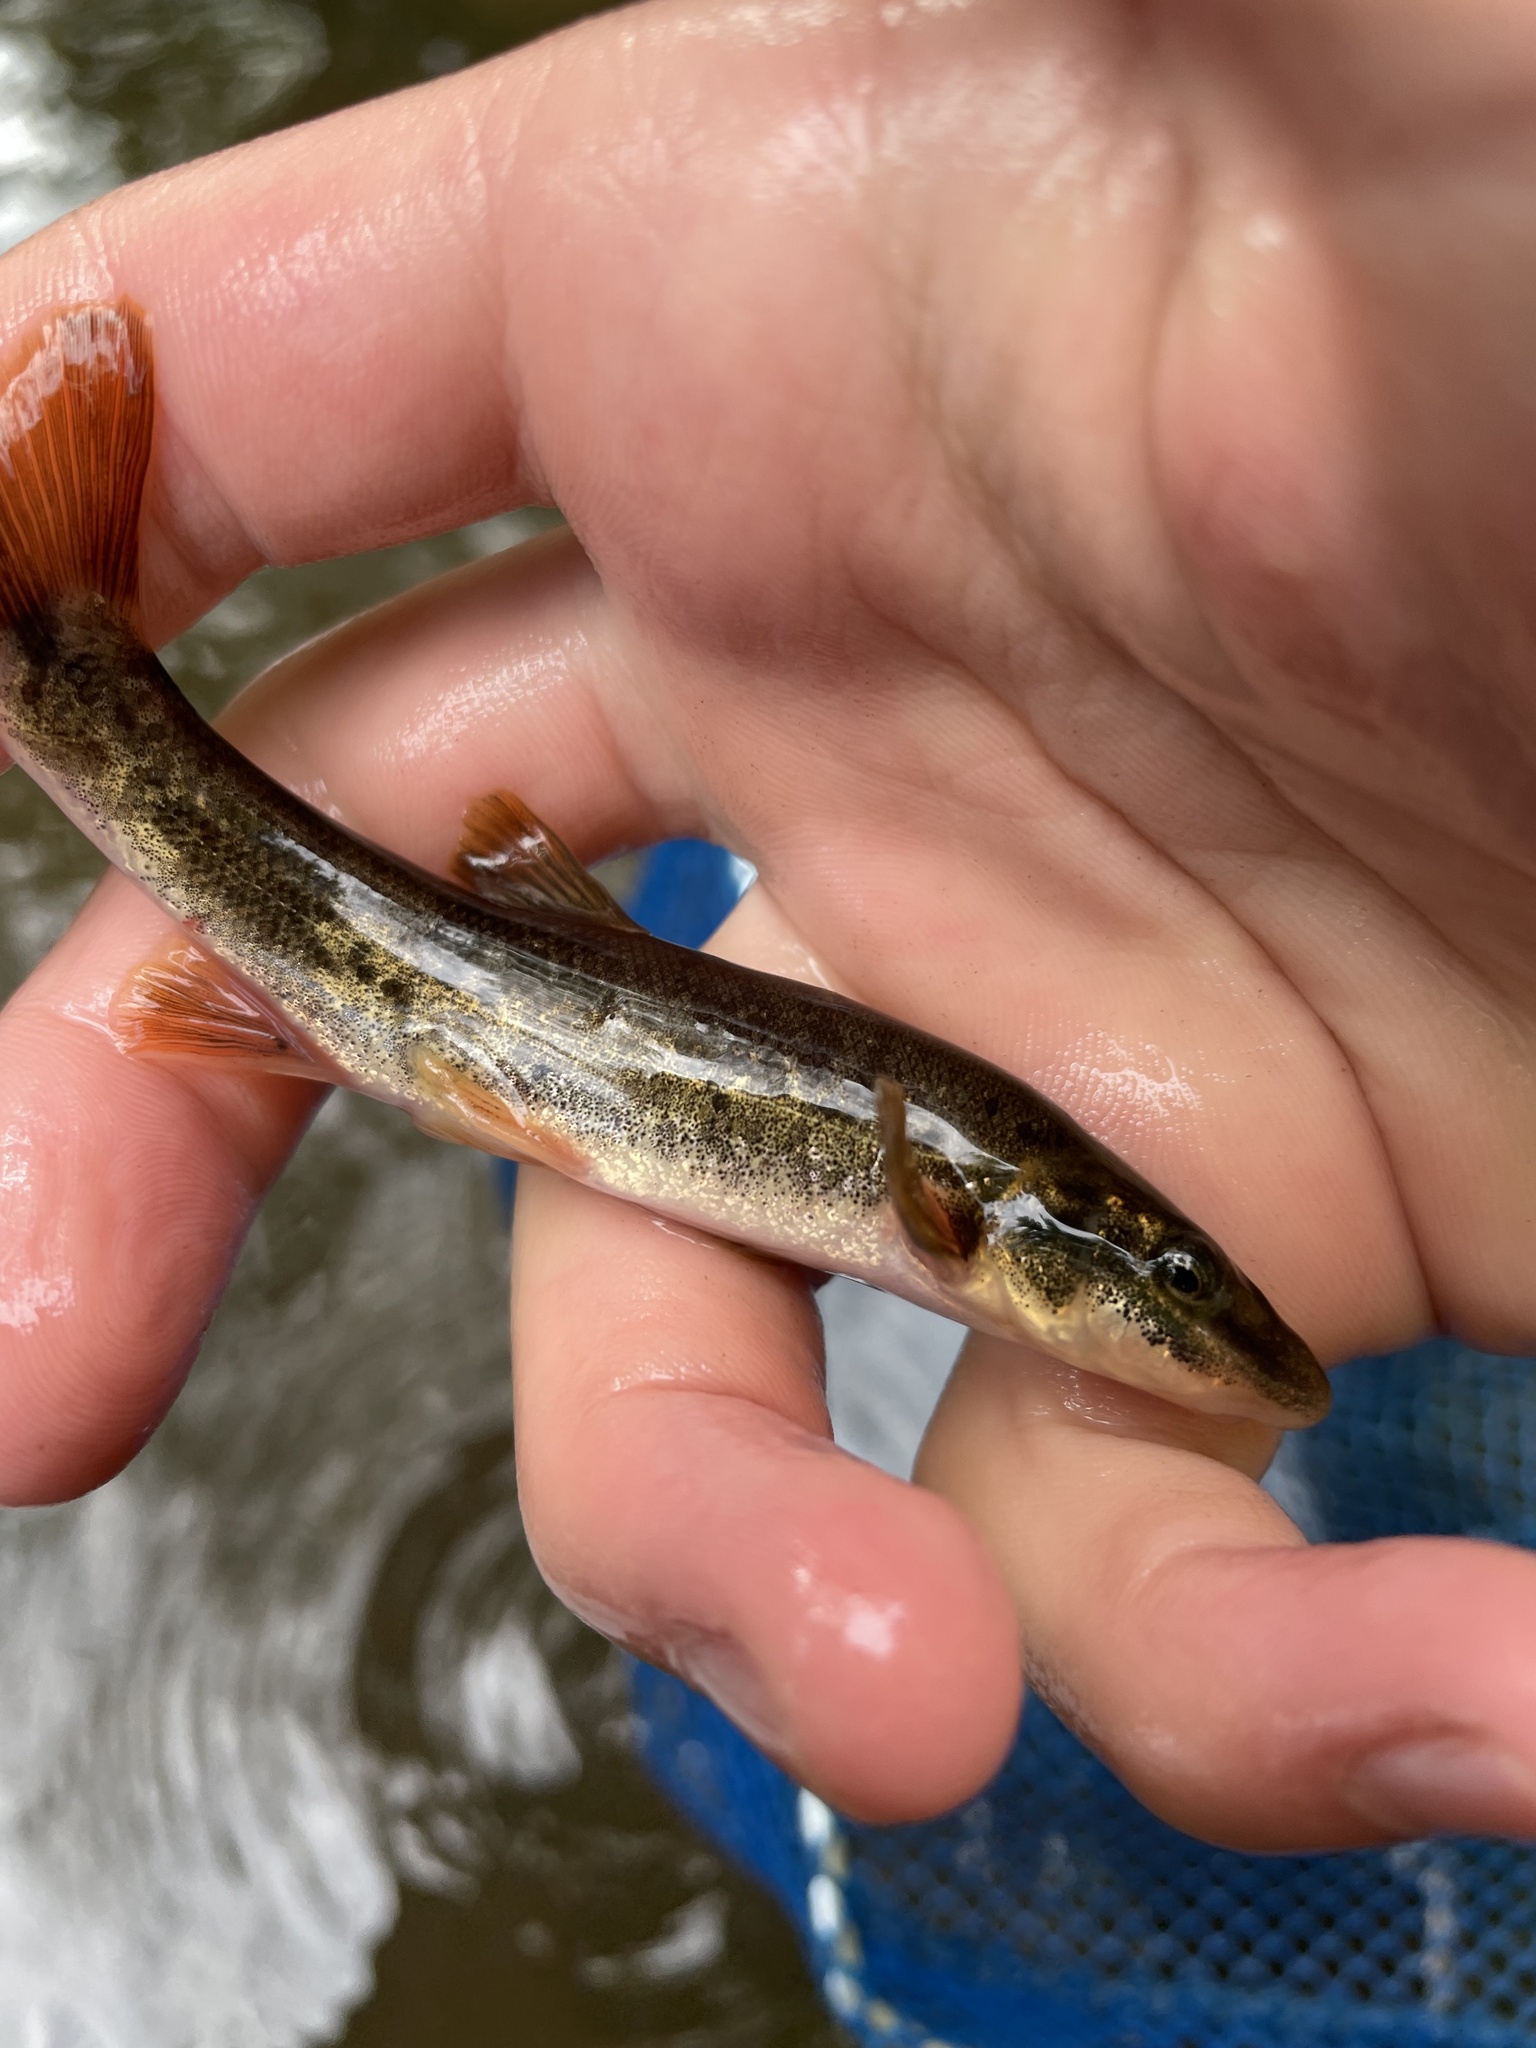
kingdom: Animalia
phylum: Chordata
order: Cypriniformes
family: Cyprinidae
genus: Rhinichthys
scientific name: Rhinichthys cataractae
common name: Longnose dace
